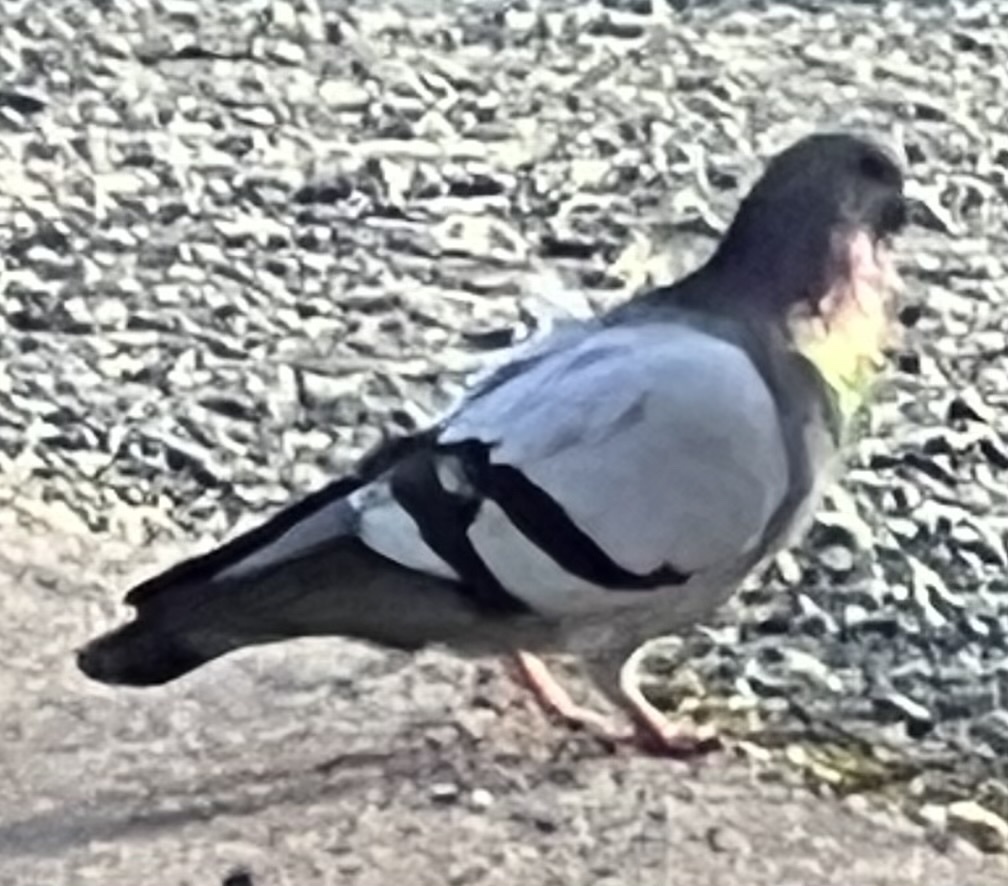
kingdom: Animalia
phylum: Chordata
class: Aves
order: Columbiformes
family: Columbidae
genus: Columba
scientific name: Columba livia
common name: Rock pigeon
